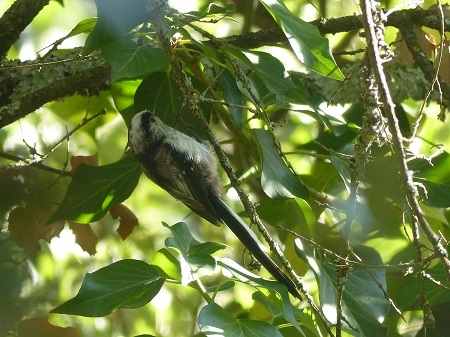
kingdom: Animalia
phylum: Chordata
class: Aves
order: Passeriformes
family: Aegithalidae
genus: Aegithalos
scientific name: Aegithalos caudatus
